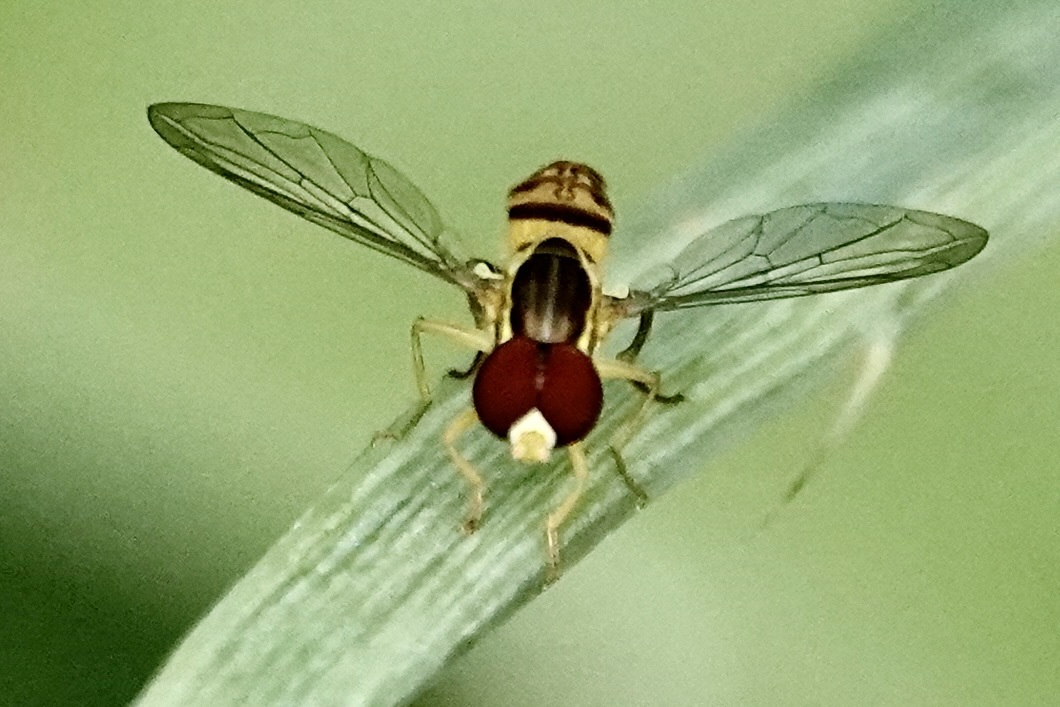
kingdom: Animalia
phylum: Arthropoda
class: Insecta
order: Diptera
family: Syrphidae
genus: Toxomerus
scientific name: Toxomerus geminatus
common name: Eastern calligrapher
